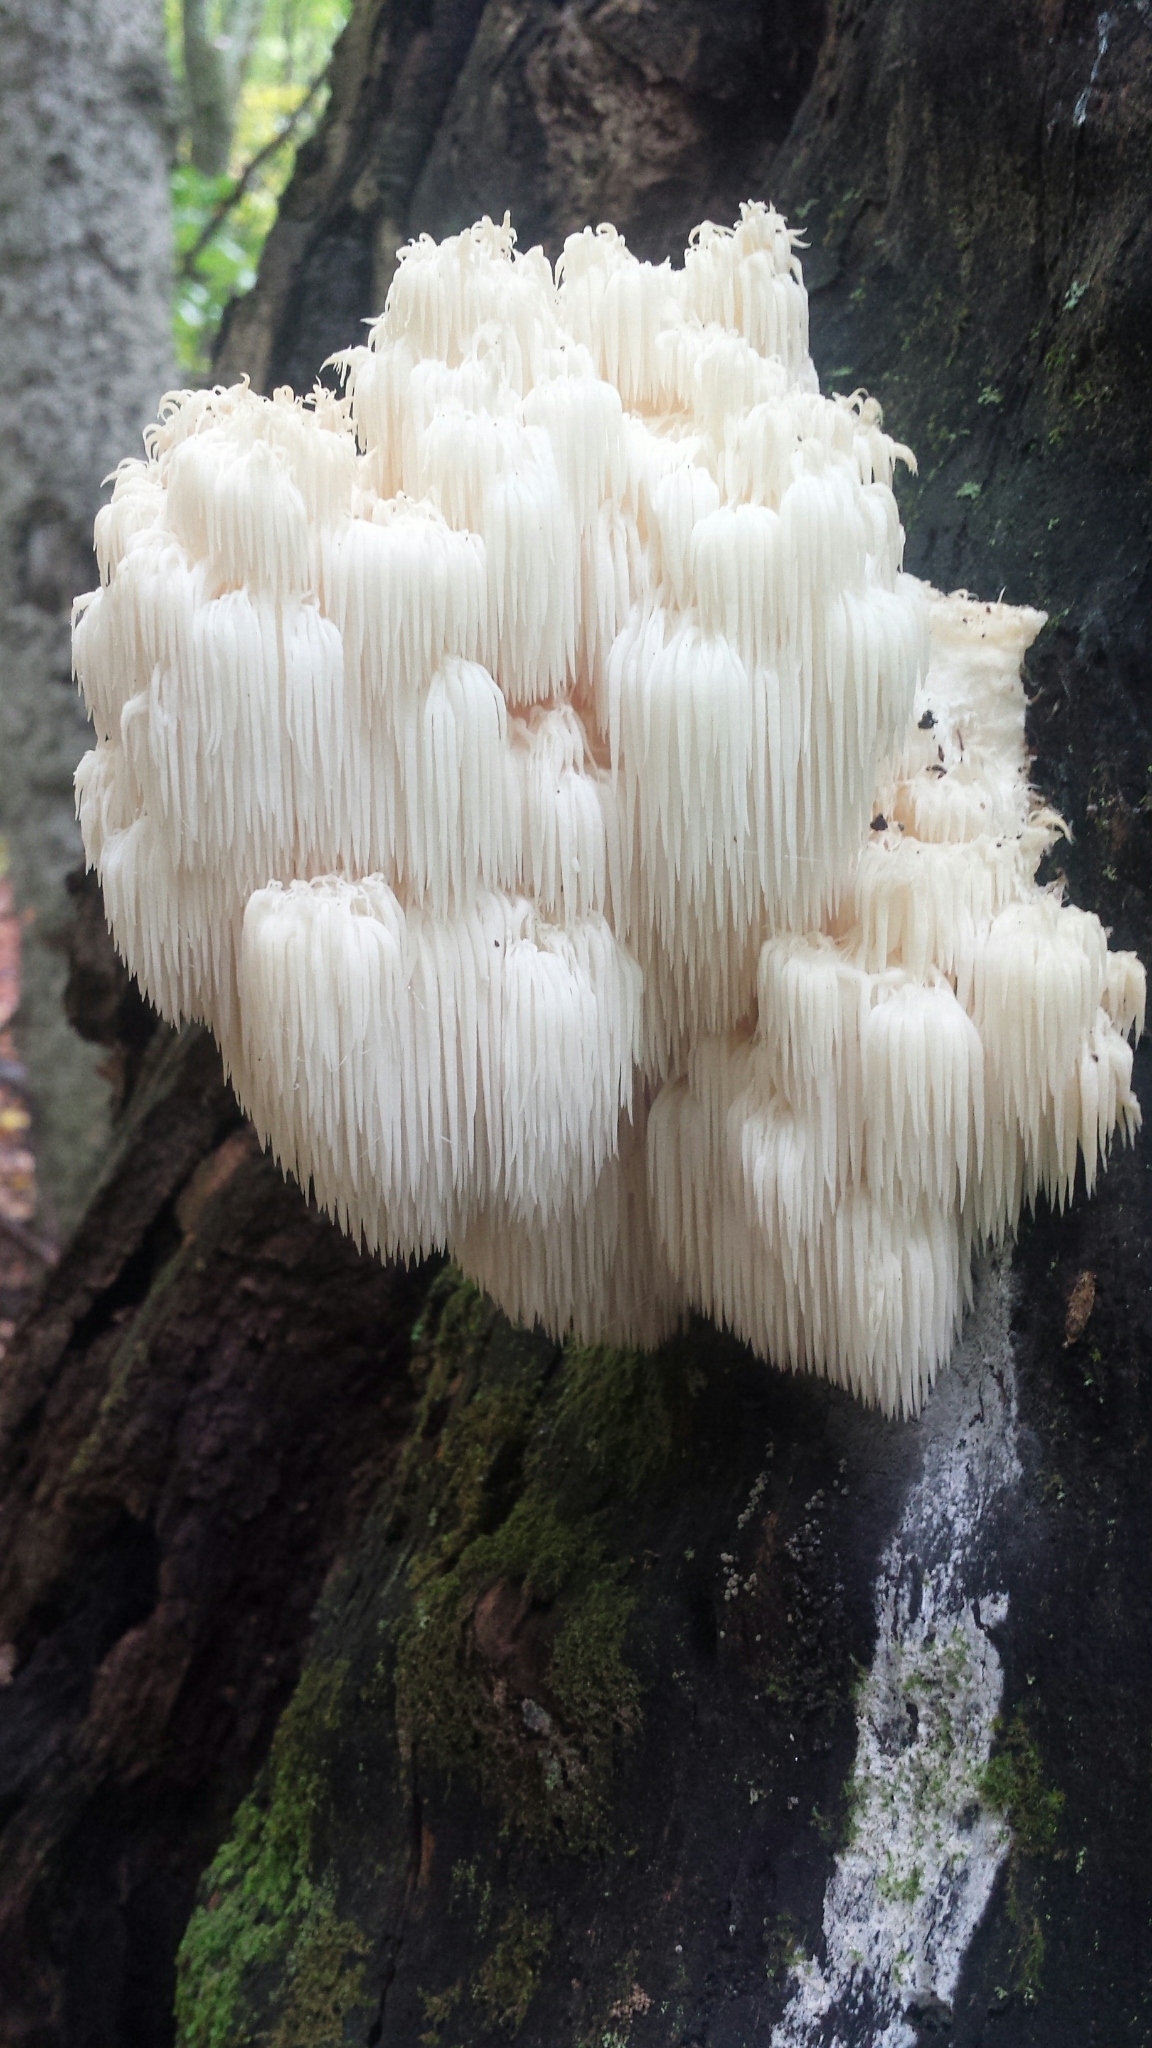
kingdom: Fungi
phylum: Basidiomycota
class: Agaricomycetes
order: Russulales
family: Hericiaceae
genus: Hericium
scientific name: Hericium americanum
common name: Bear's head tooth
